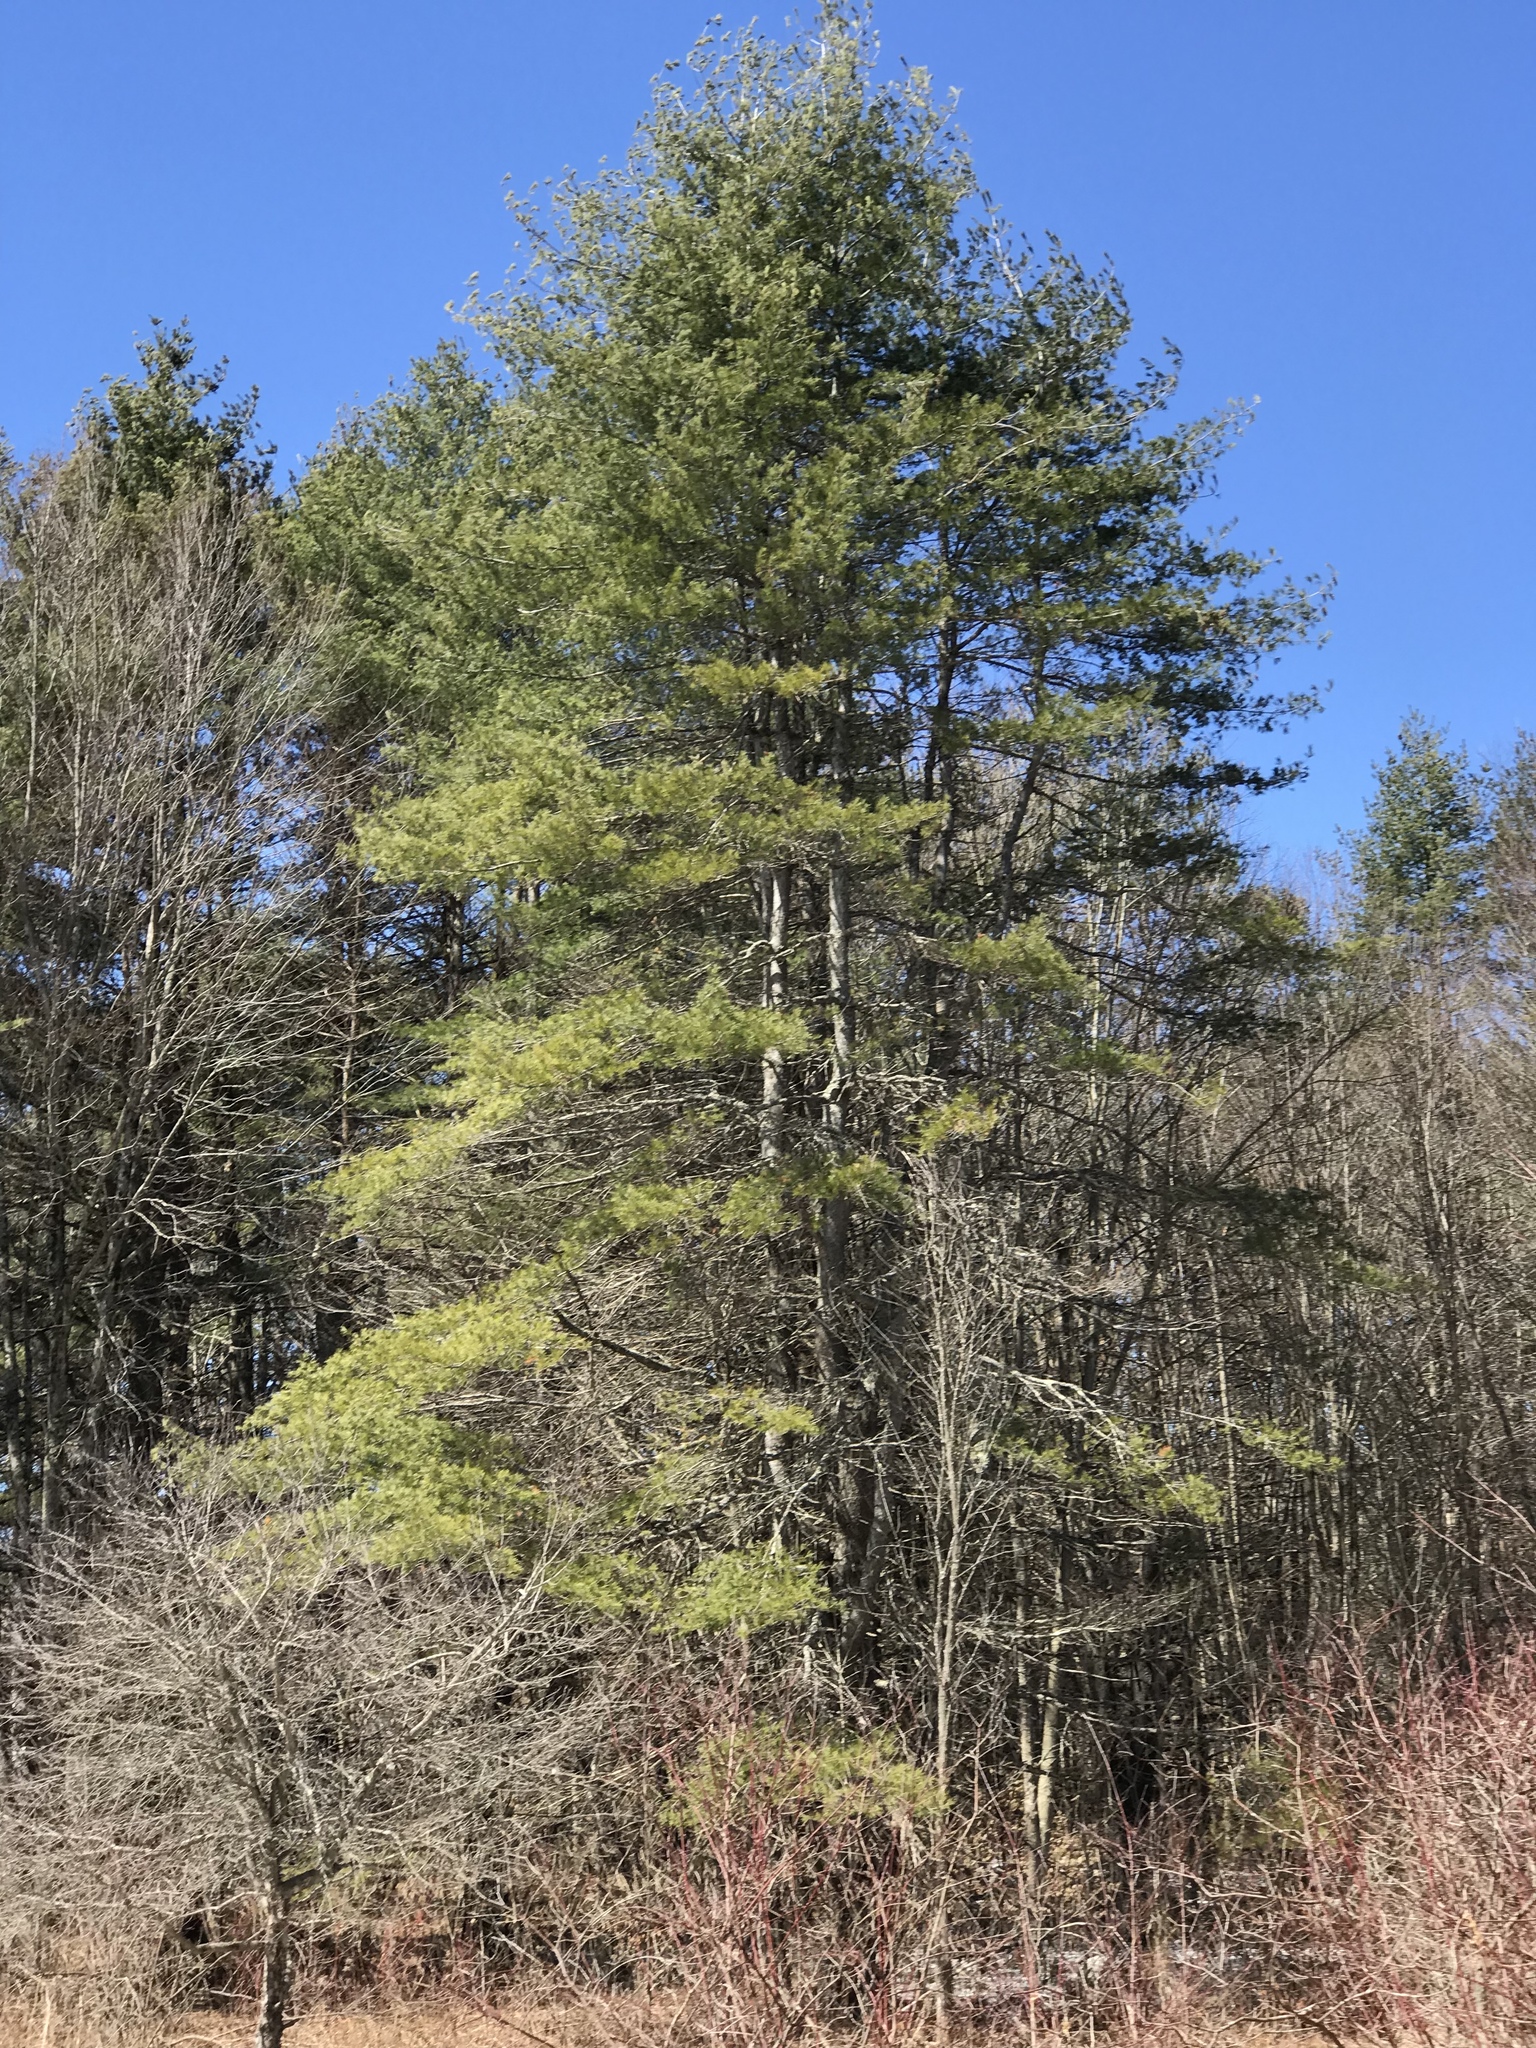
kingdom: Plantae
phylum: Tracheophyta
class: Pinopsida
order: Pinales
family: Pinaceae
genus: Pinus
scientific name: Pinus strobus
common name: Weymouth pine
